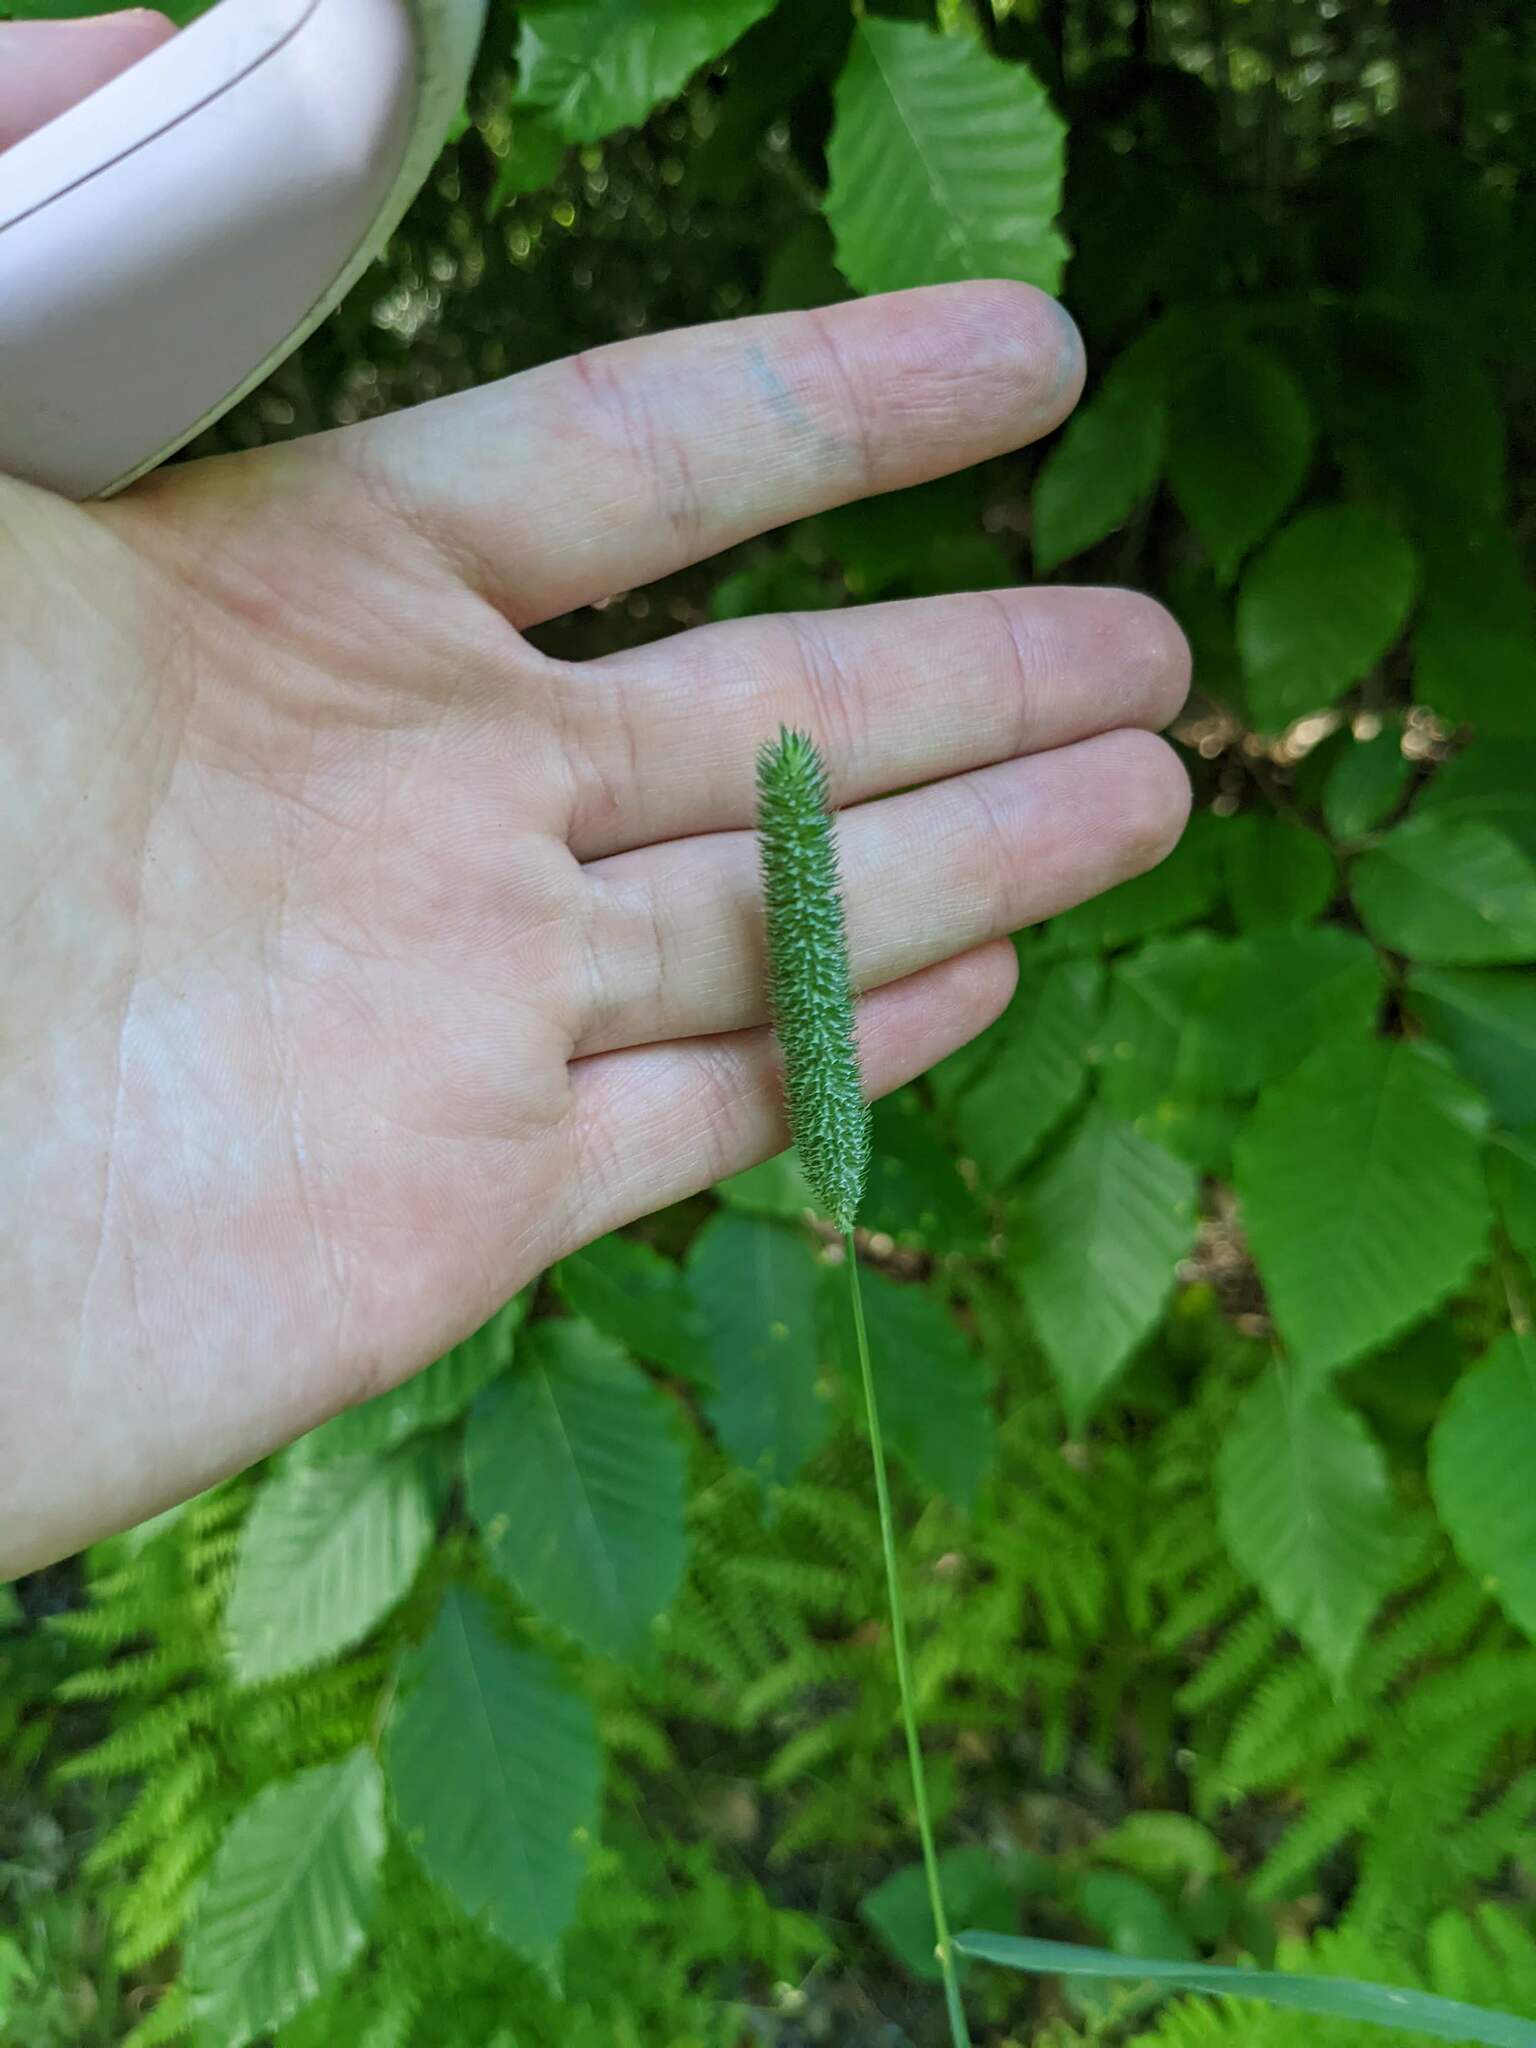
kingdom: Plantae
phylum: Tracheophyta
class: Liliopsida
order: Poales
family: Poaceae
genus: Phleum
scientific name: Phleum pratense
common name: Timothy grass
